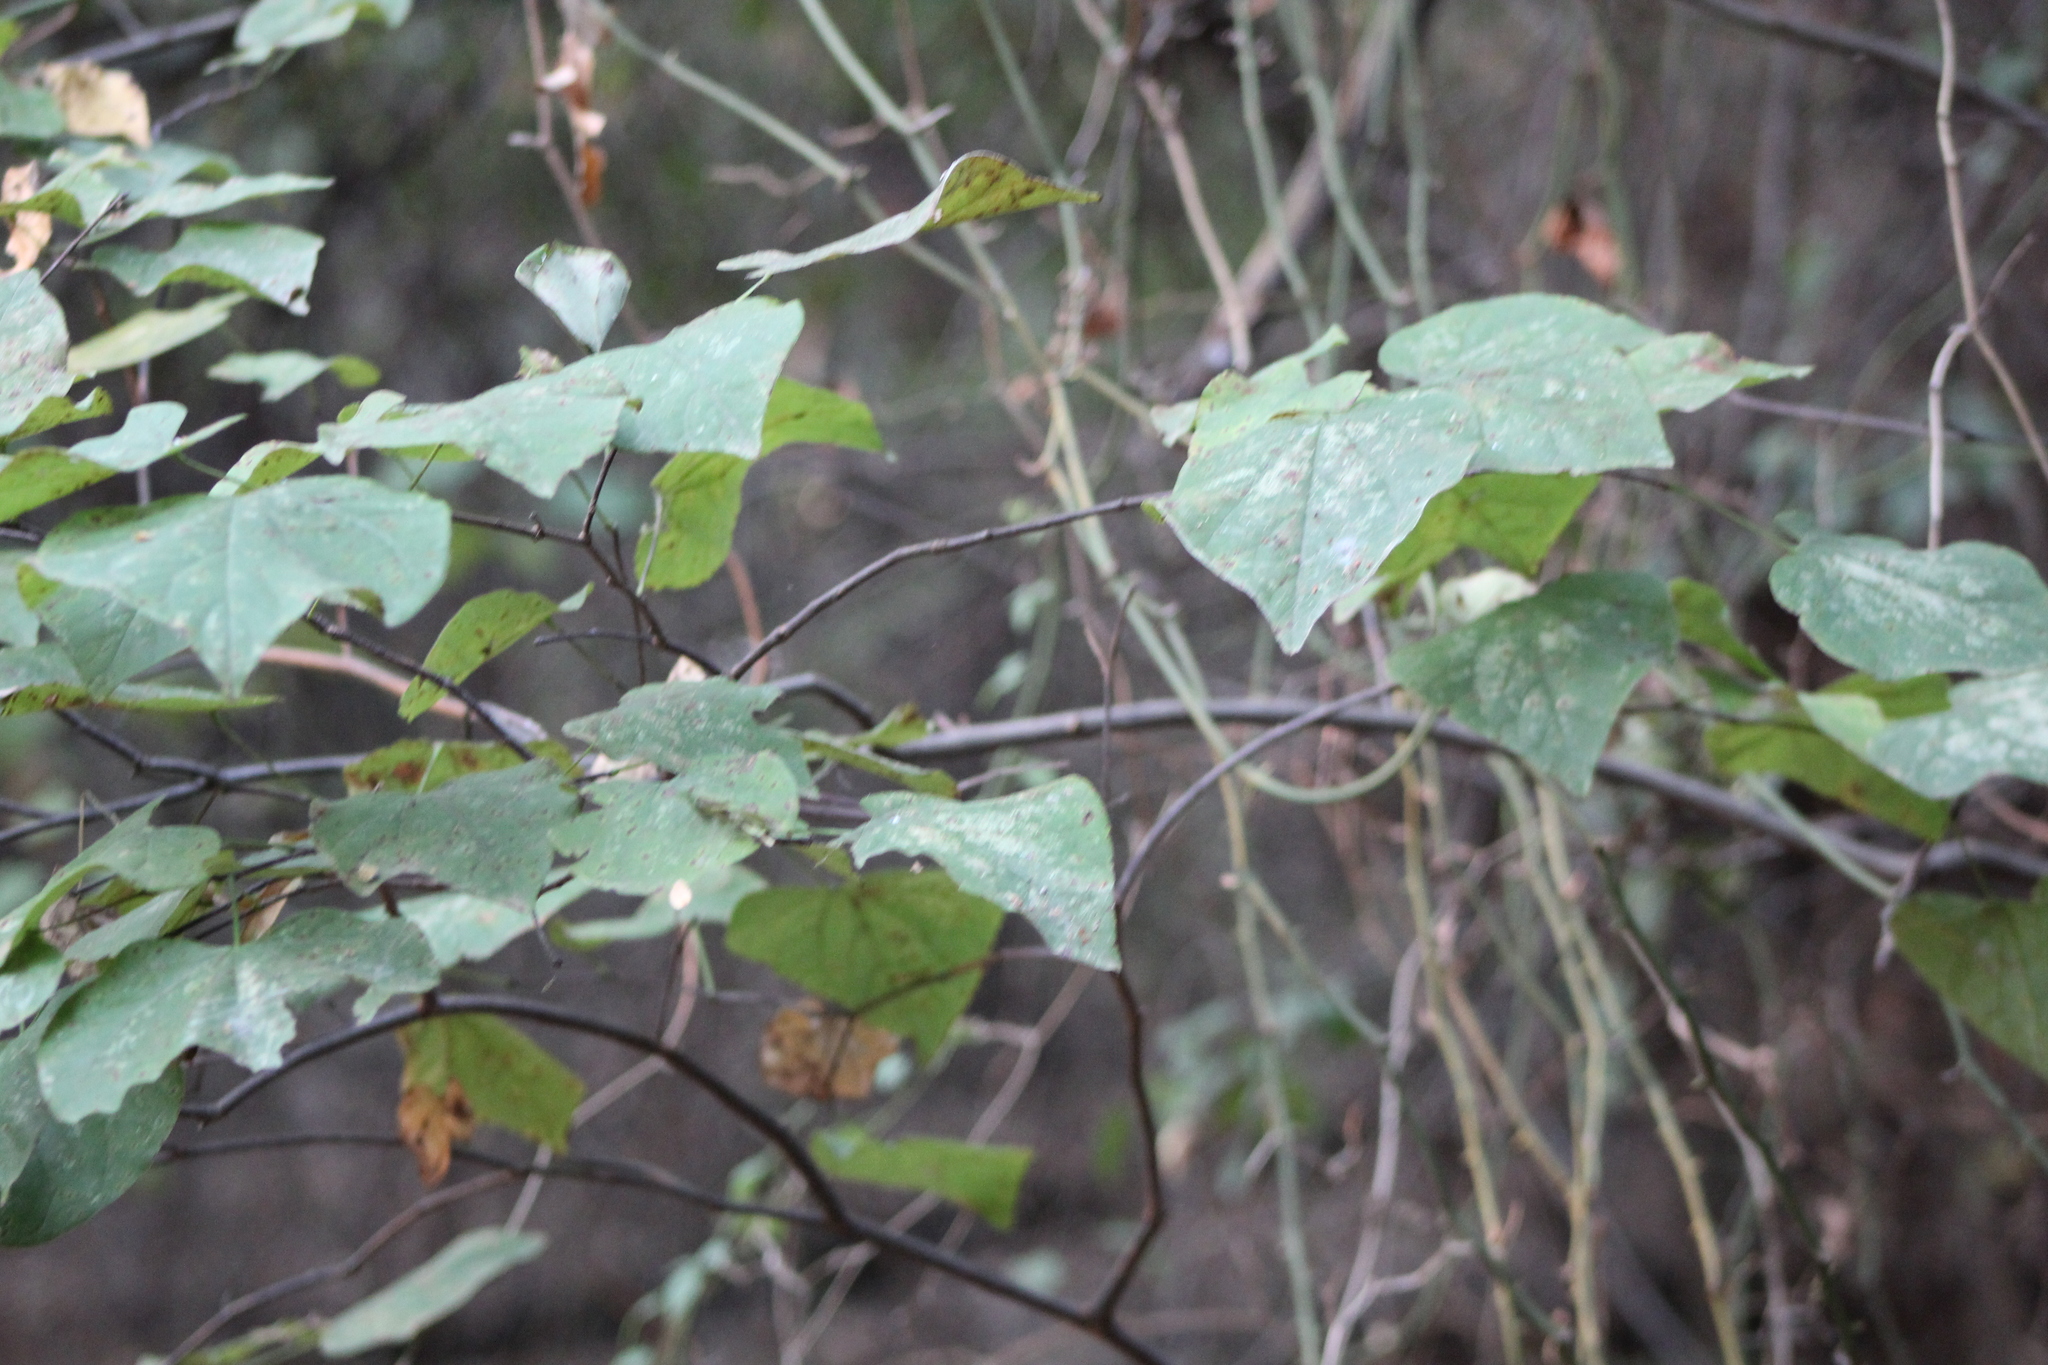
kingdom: Plantae
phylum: Tracheophyta
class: Magnoliopsida
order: Fabales
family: Fabaceae
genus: Cercis
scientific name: Cercis canadensis
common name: Eastern redbud
